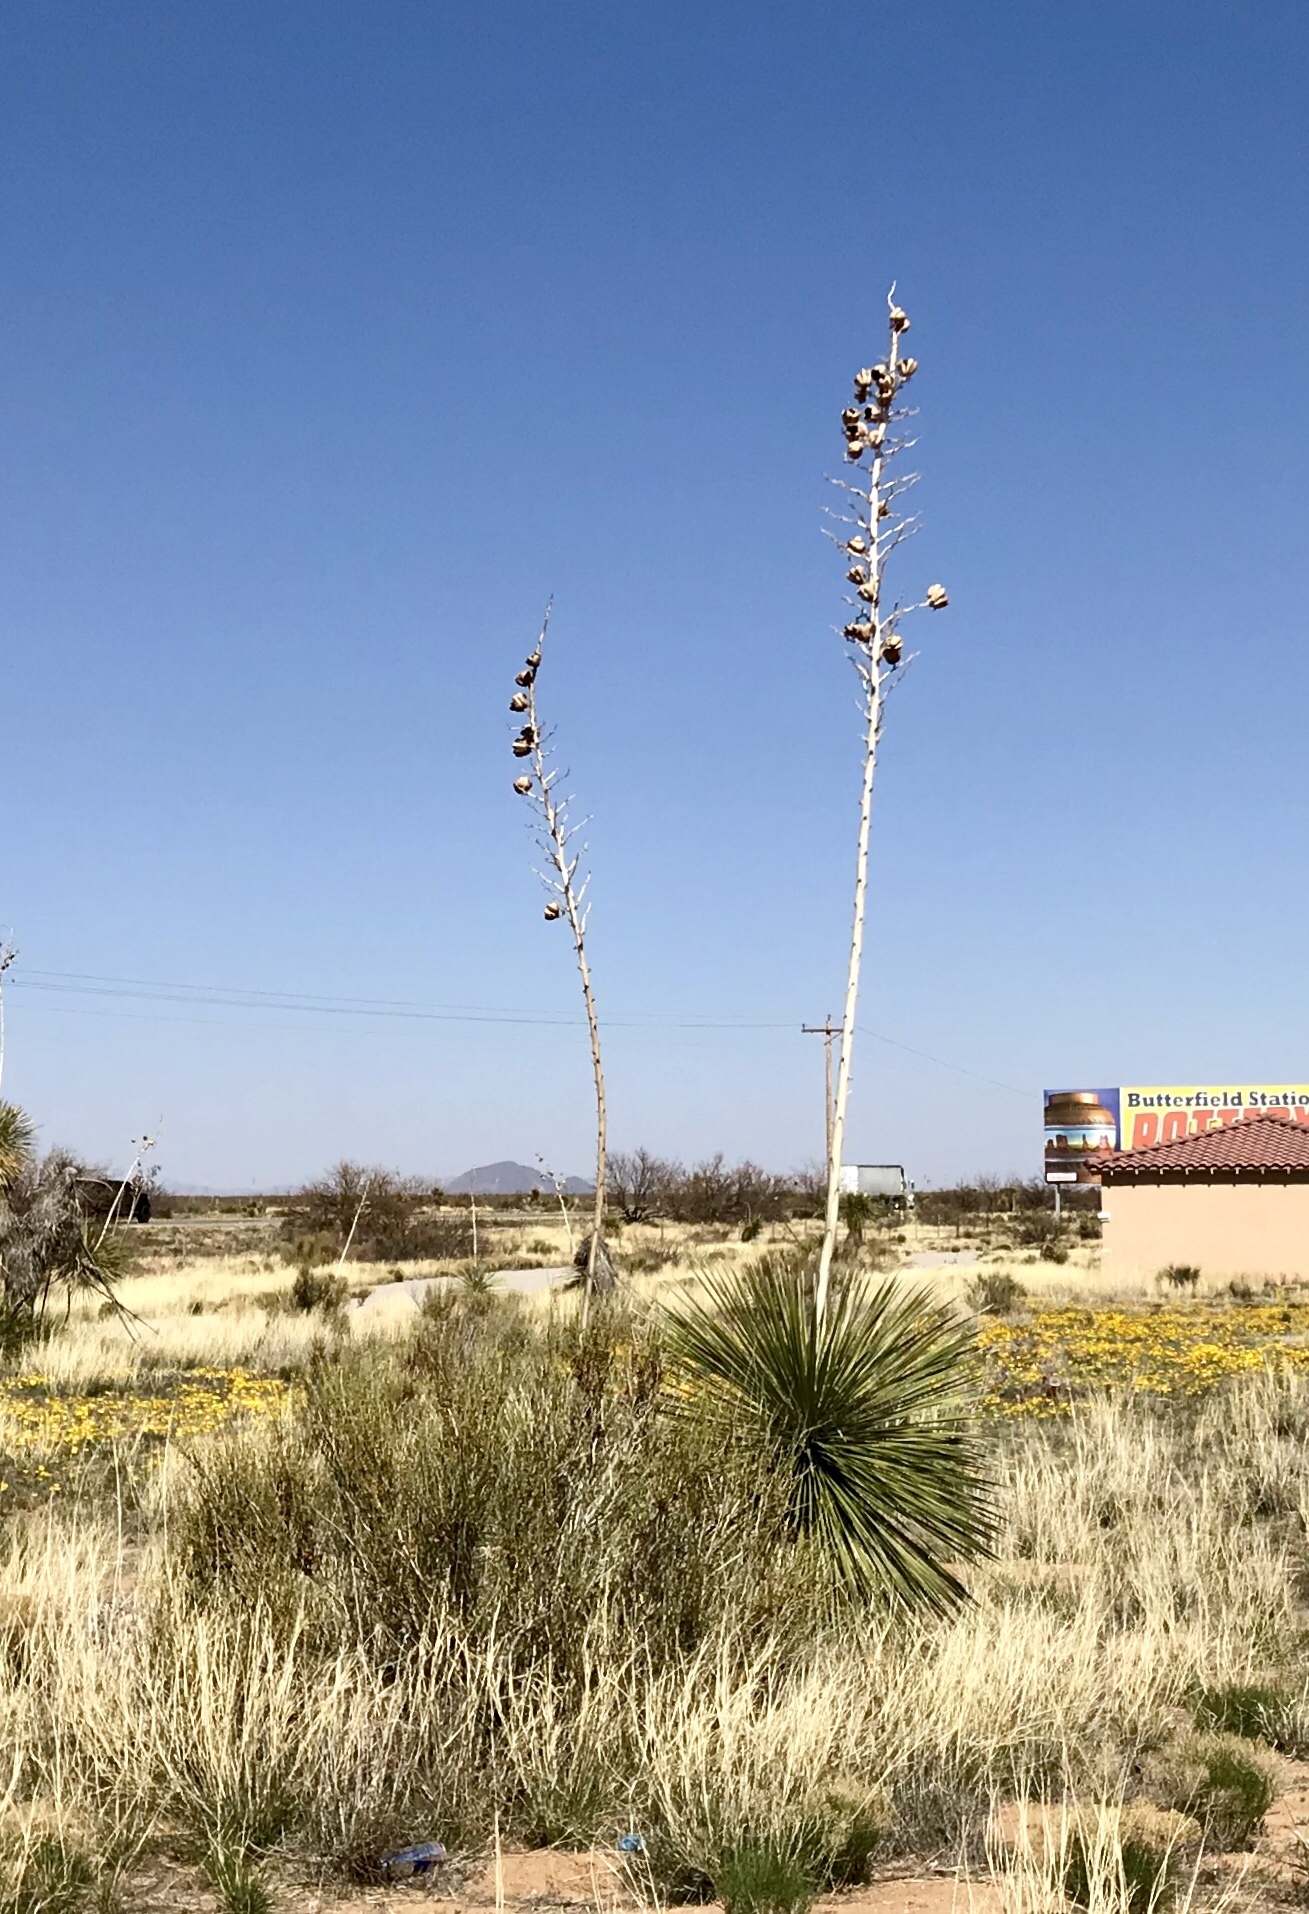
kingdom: Plantae
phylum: Tracheophyta
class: Liliopsida
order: Asparagales
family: Asparagaceae
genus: Yucca
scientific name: Yucca elata
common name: Palmella
